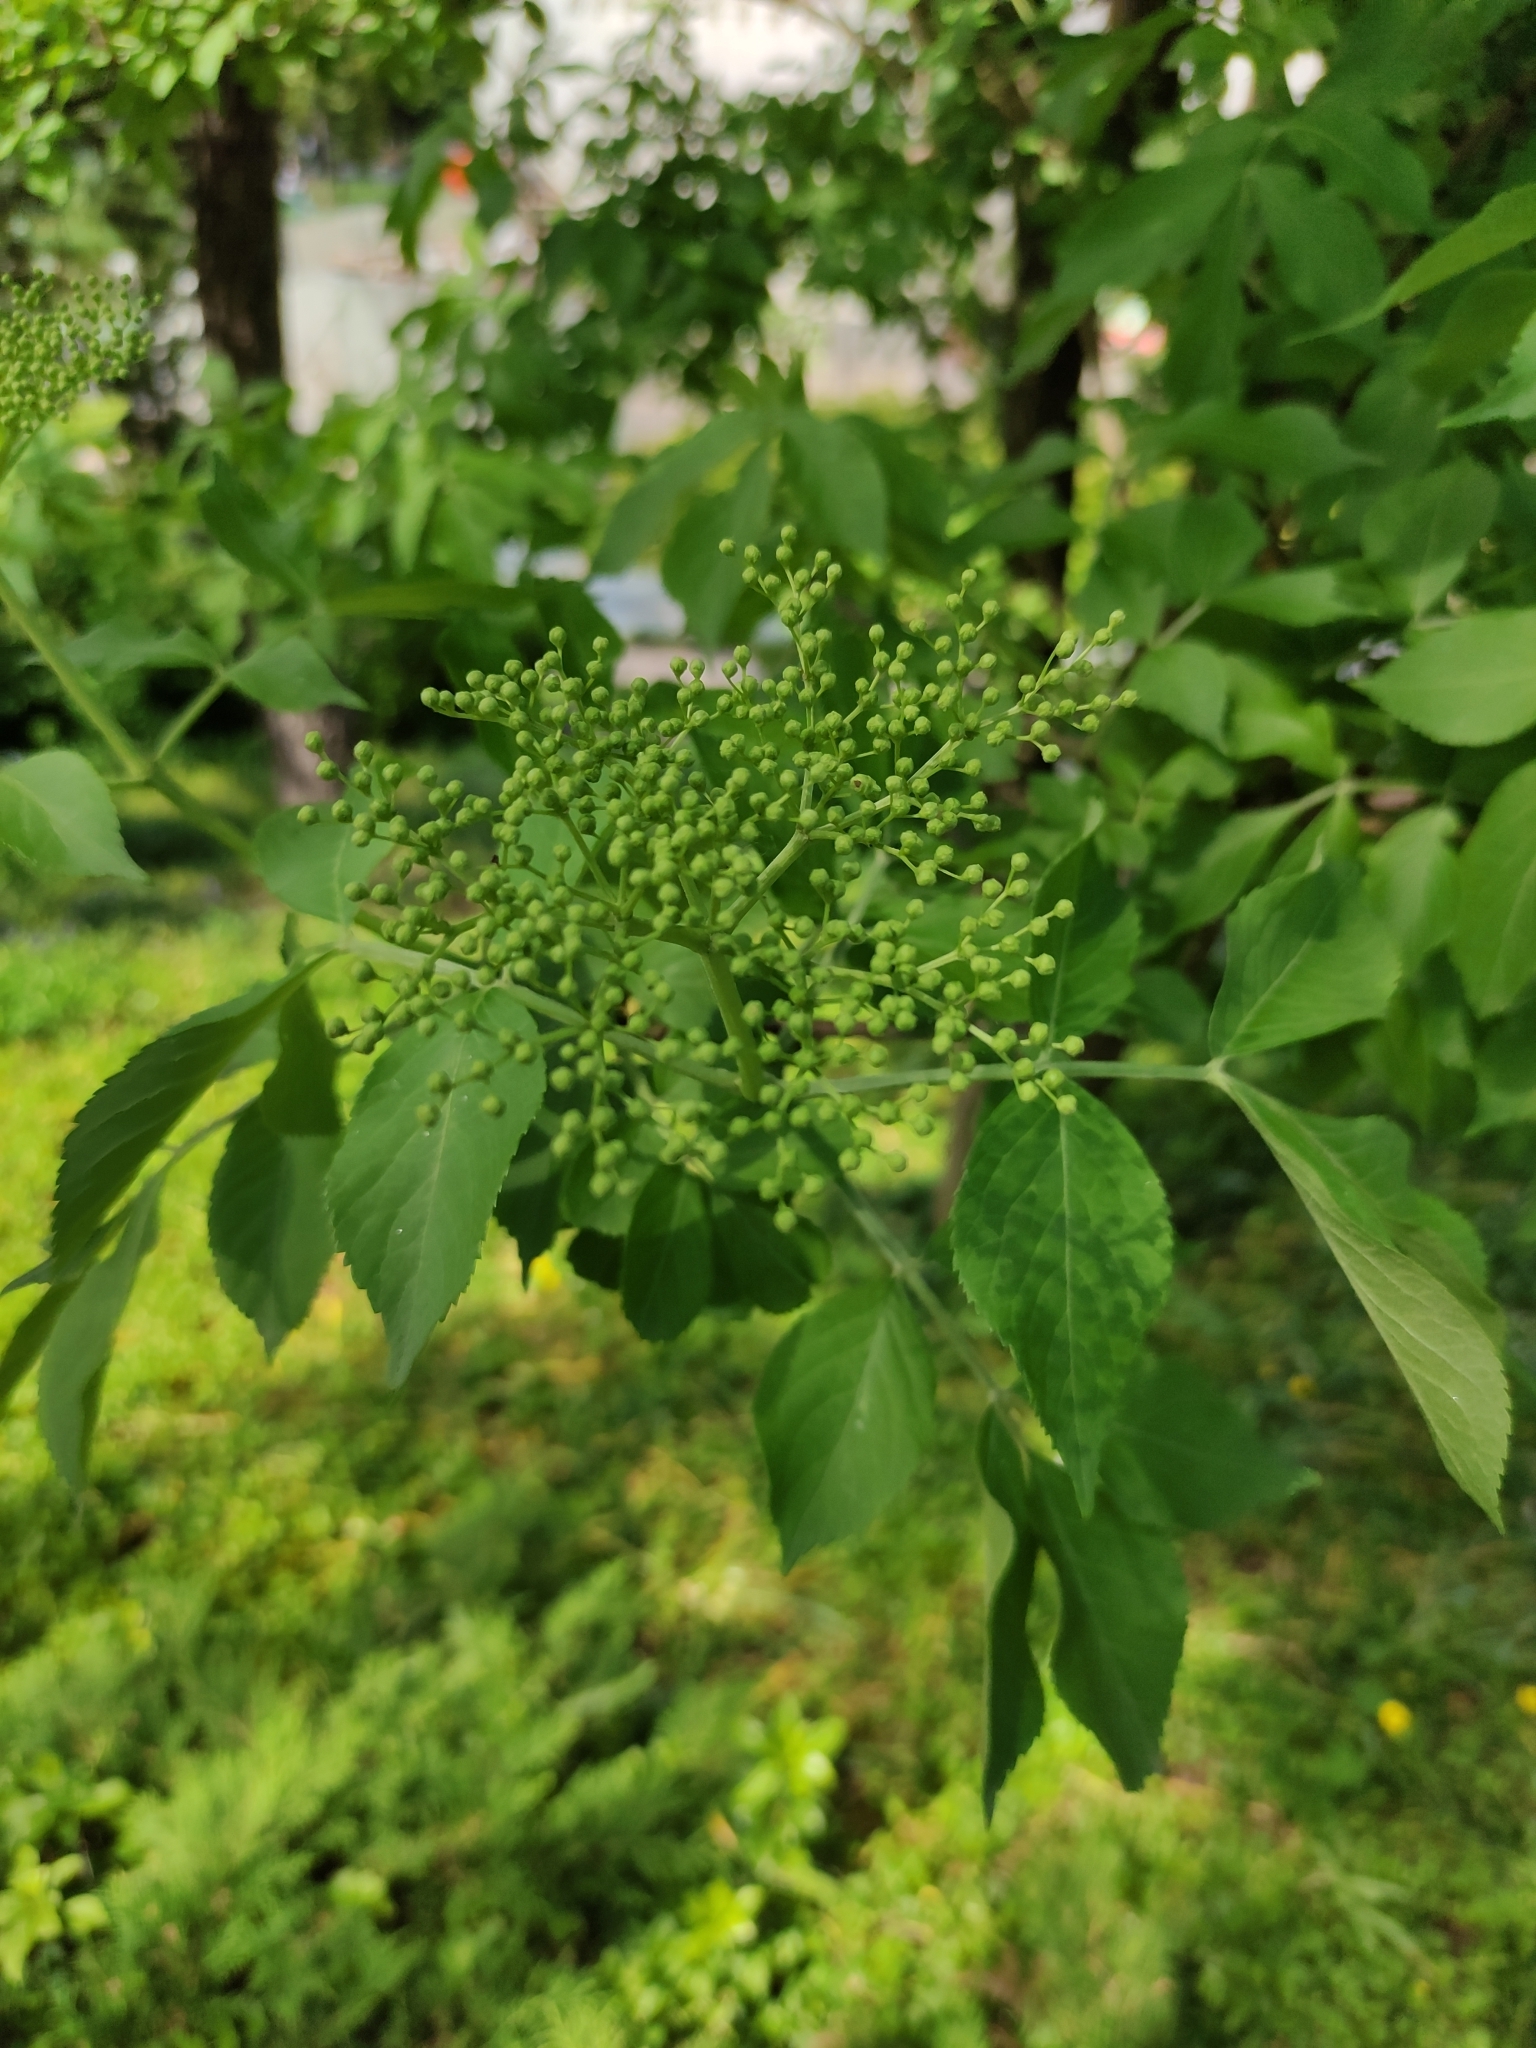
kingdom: Plantae
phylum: Tracheophyta
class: Magnoliopsida
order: Dipsacales
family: Viburnaceae
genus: Sambucus
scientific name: Sambucus nigra
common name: Elder
